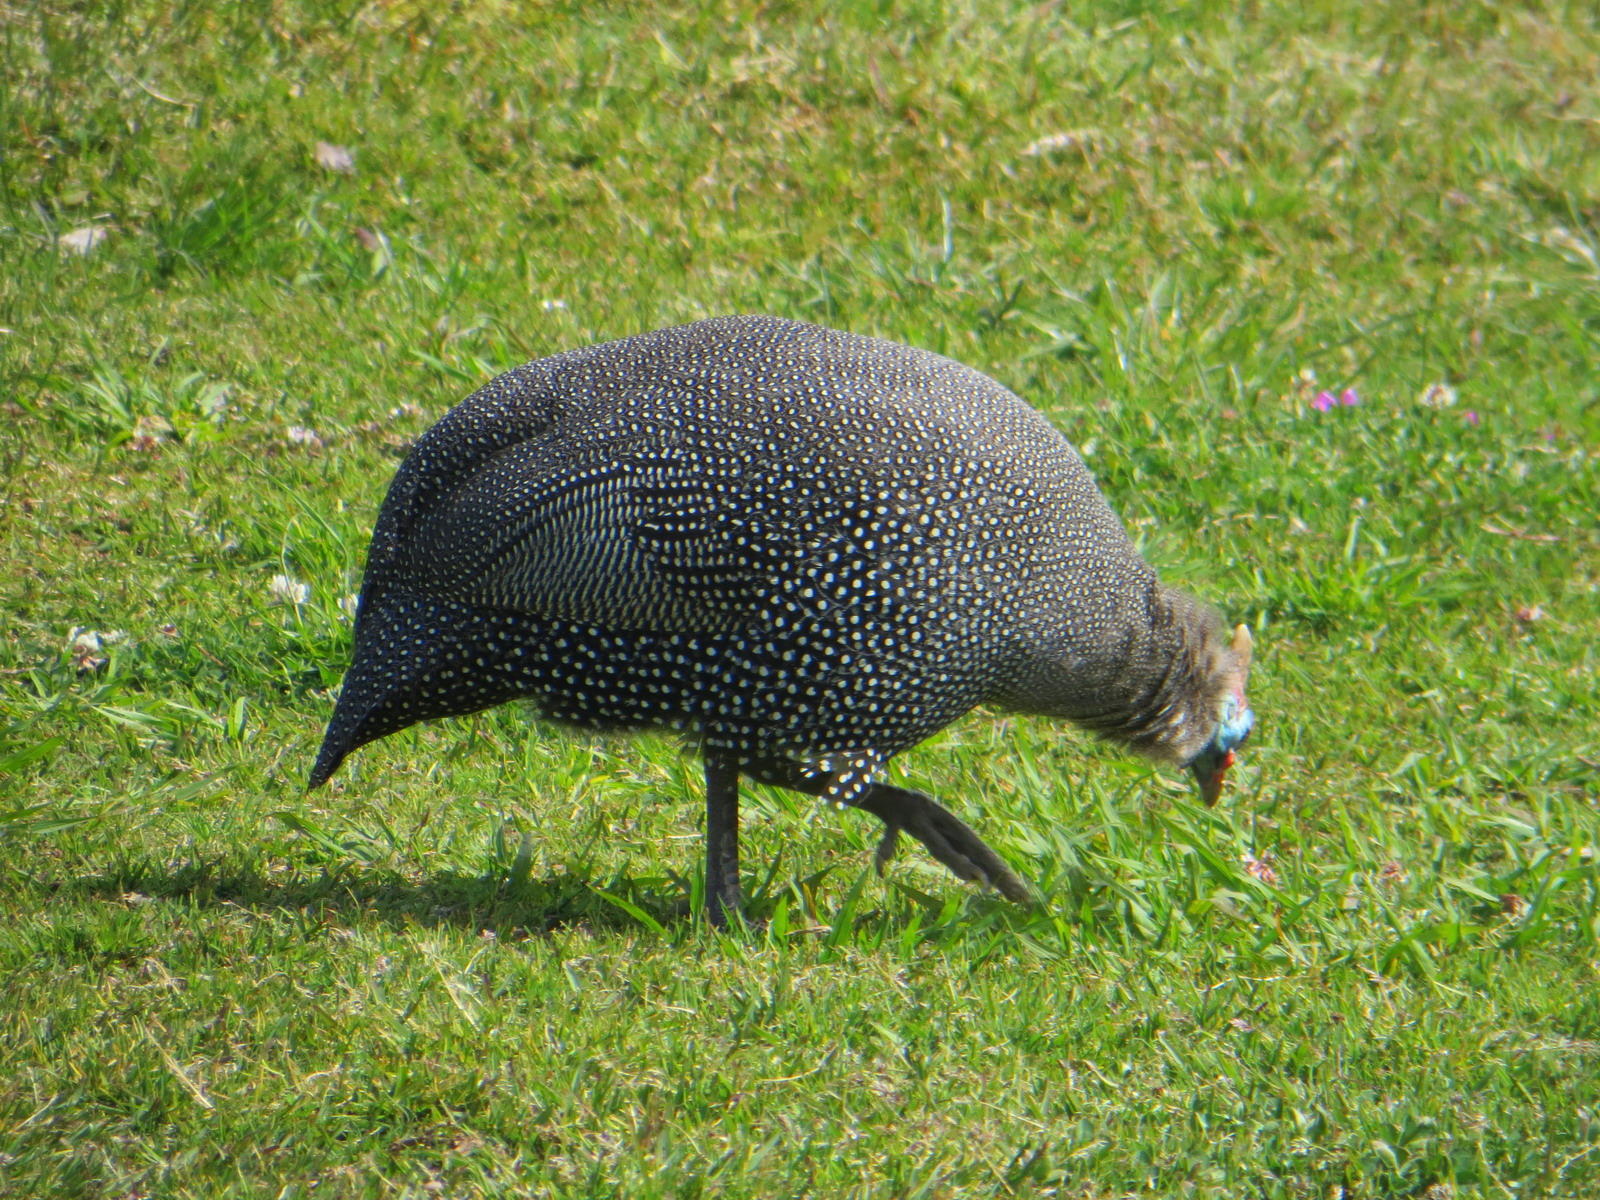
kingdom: Animalia
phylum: Chordata
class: Aves
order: Galliformes
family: Numididae
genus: Numida
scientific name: Numida meleagris
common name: Helmeted guineafowl
